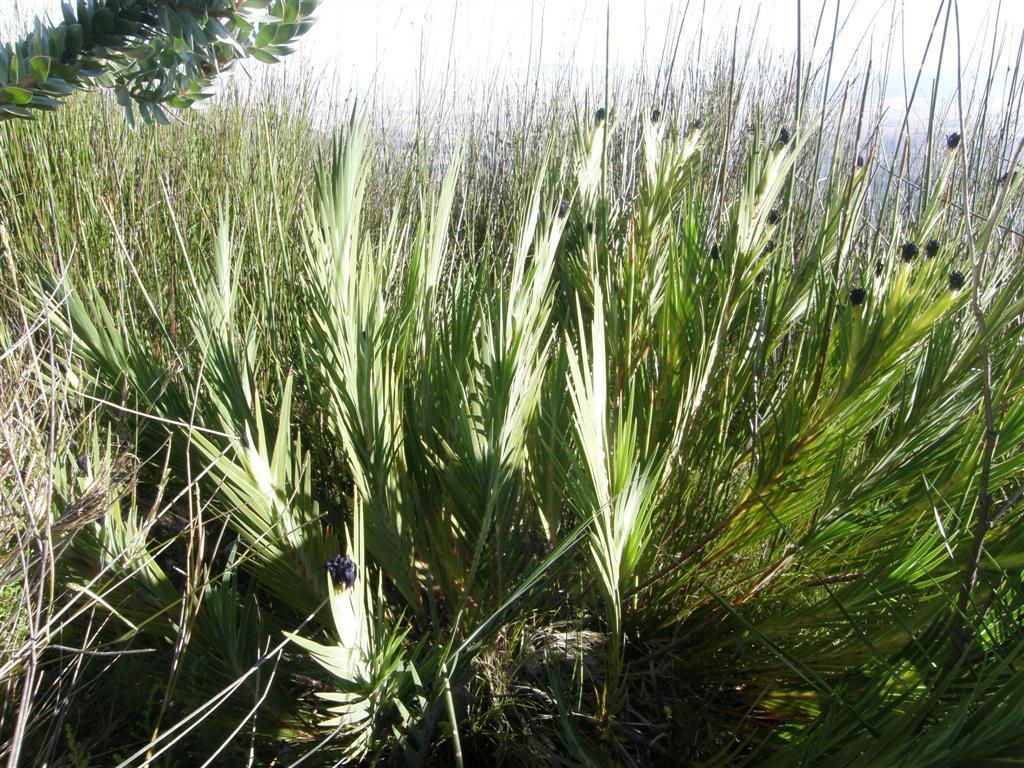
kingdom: Plantae
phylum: Tracheophyta
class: Liliopsida
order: Asparagales
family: Iridaceae
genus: Klattia
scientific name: Klattia partita
